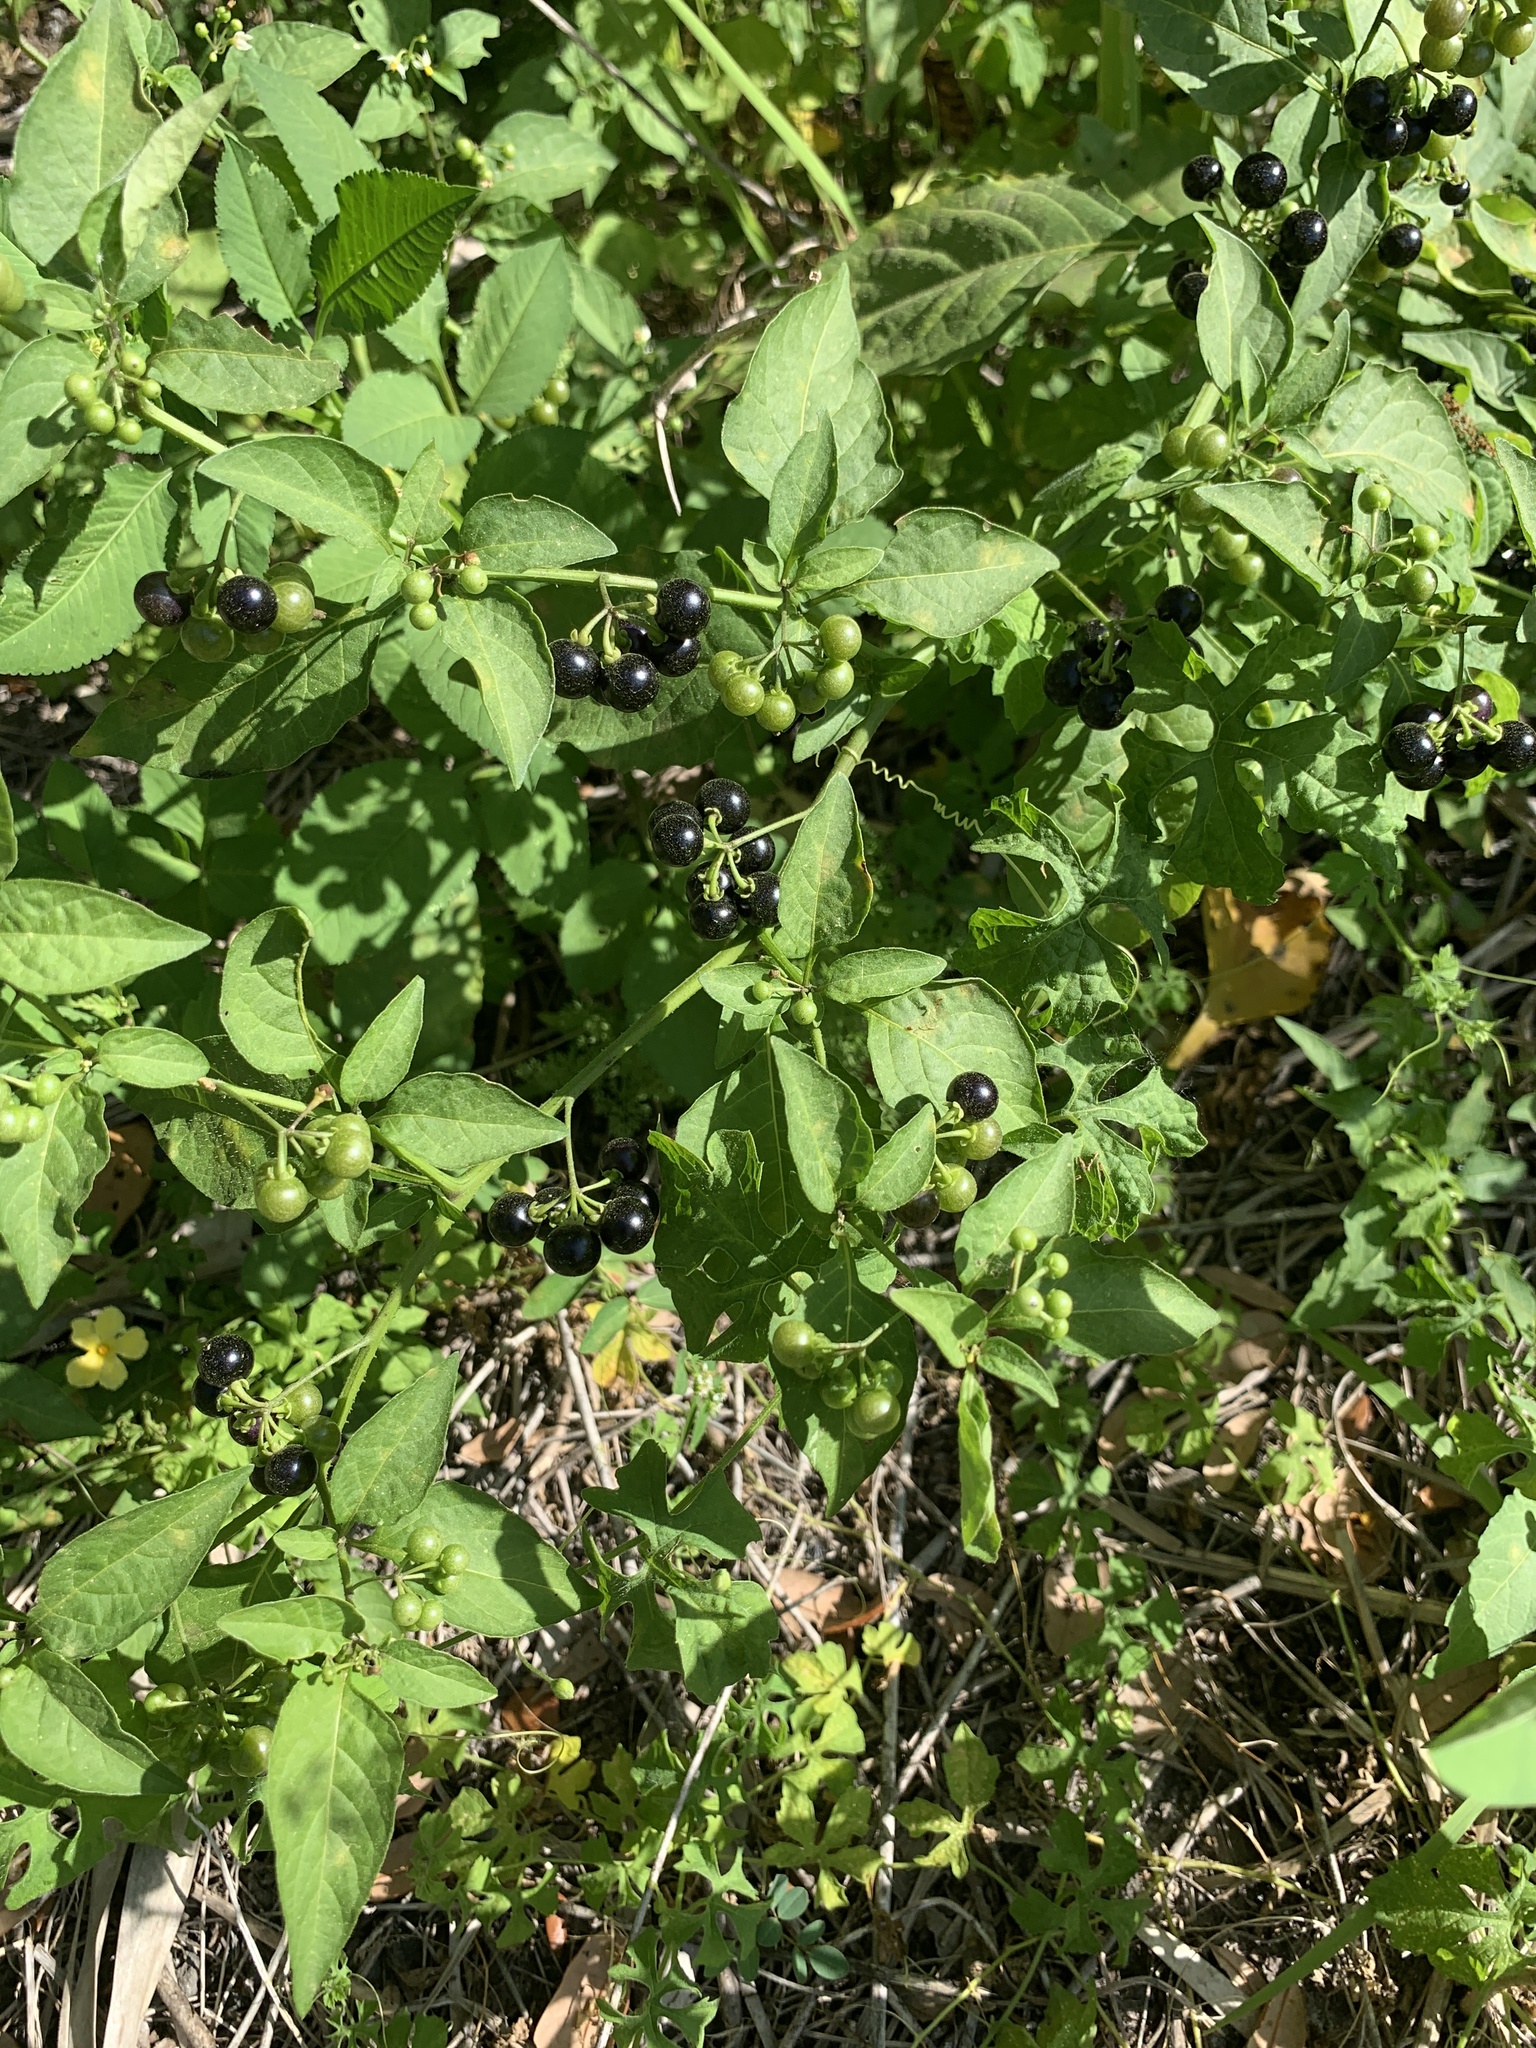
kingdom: Plantae
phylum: Tracheophyta
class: Magnoliopsida
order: Solanales
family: Solanaceae
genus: Solanum
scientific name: Solanum americanum
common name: American black nightshade
